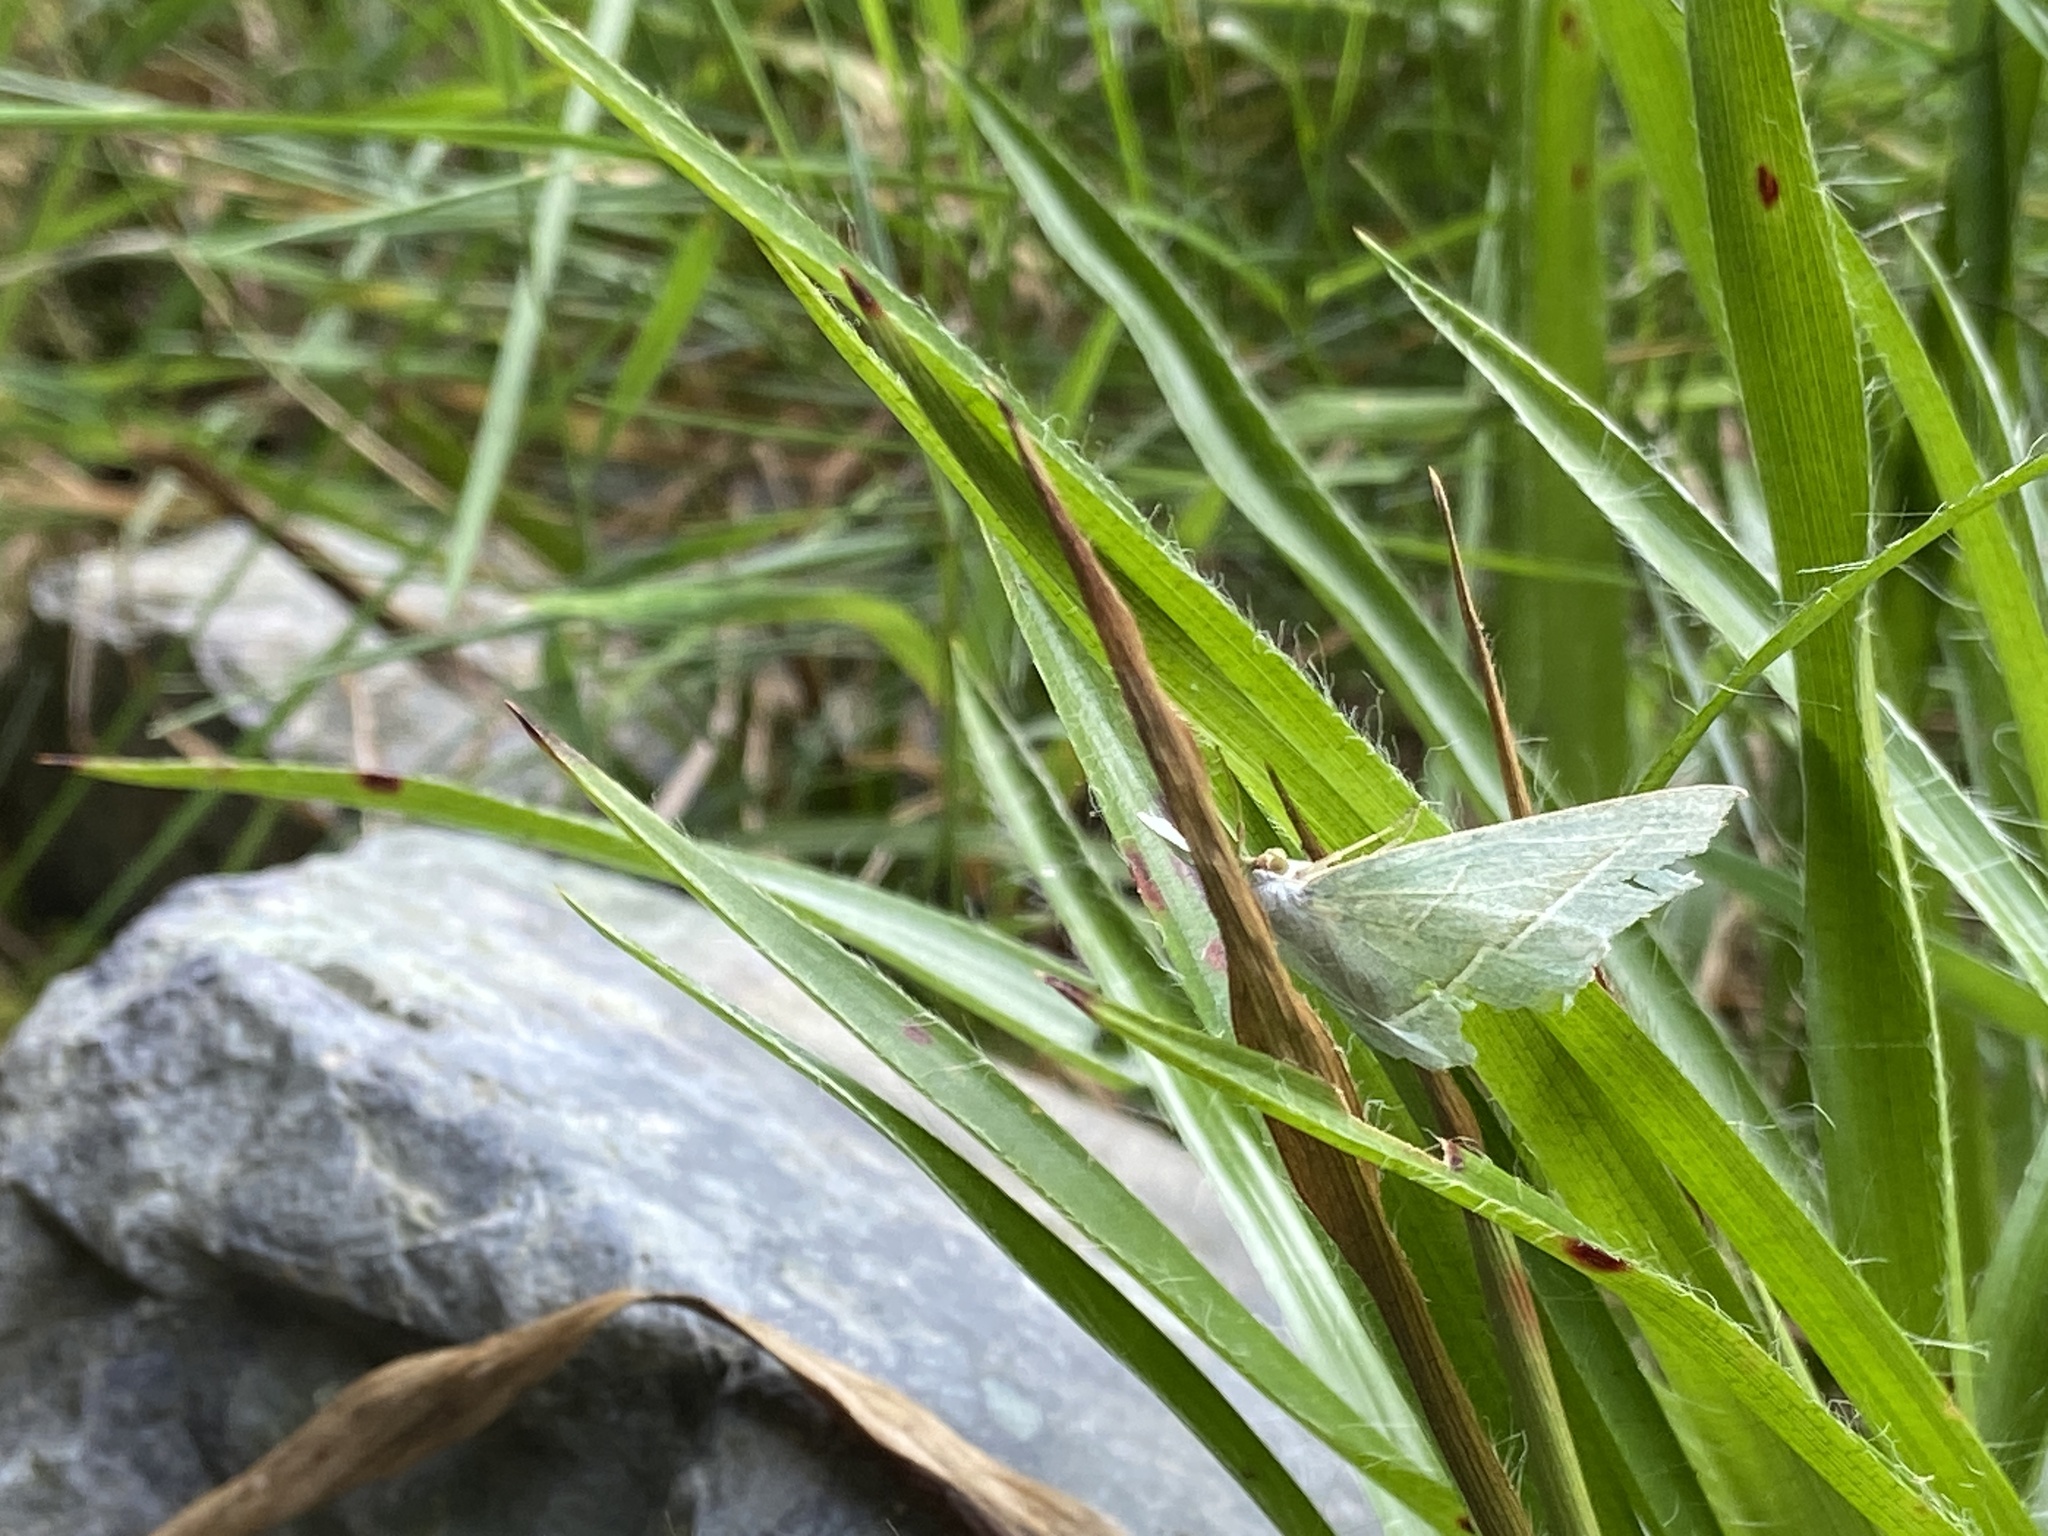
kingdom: Animalia
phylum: Arthropoda
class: Insecta
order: Lepidoptera
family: Geometridae
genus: Campaea
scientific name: Campaea margaritaria
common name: Light emerald
